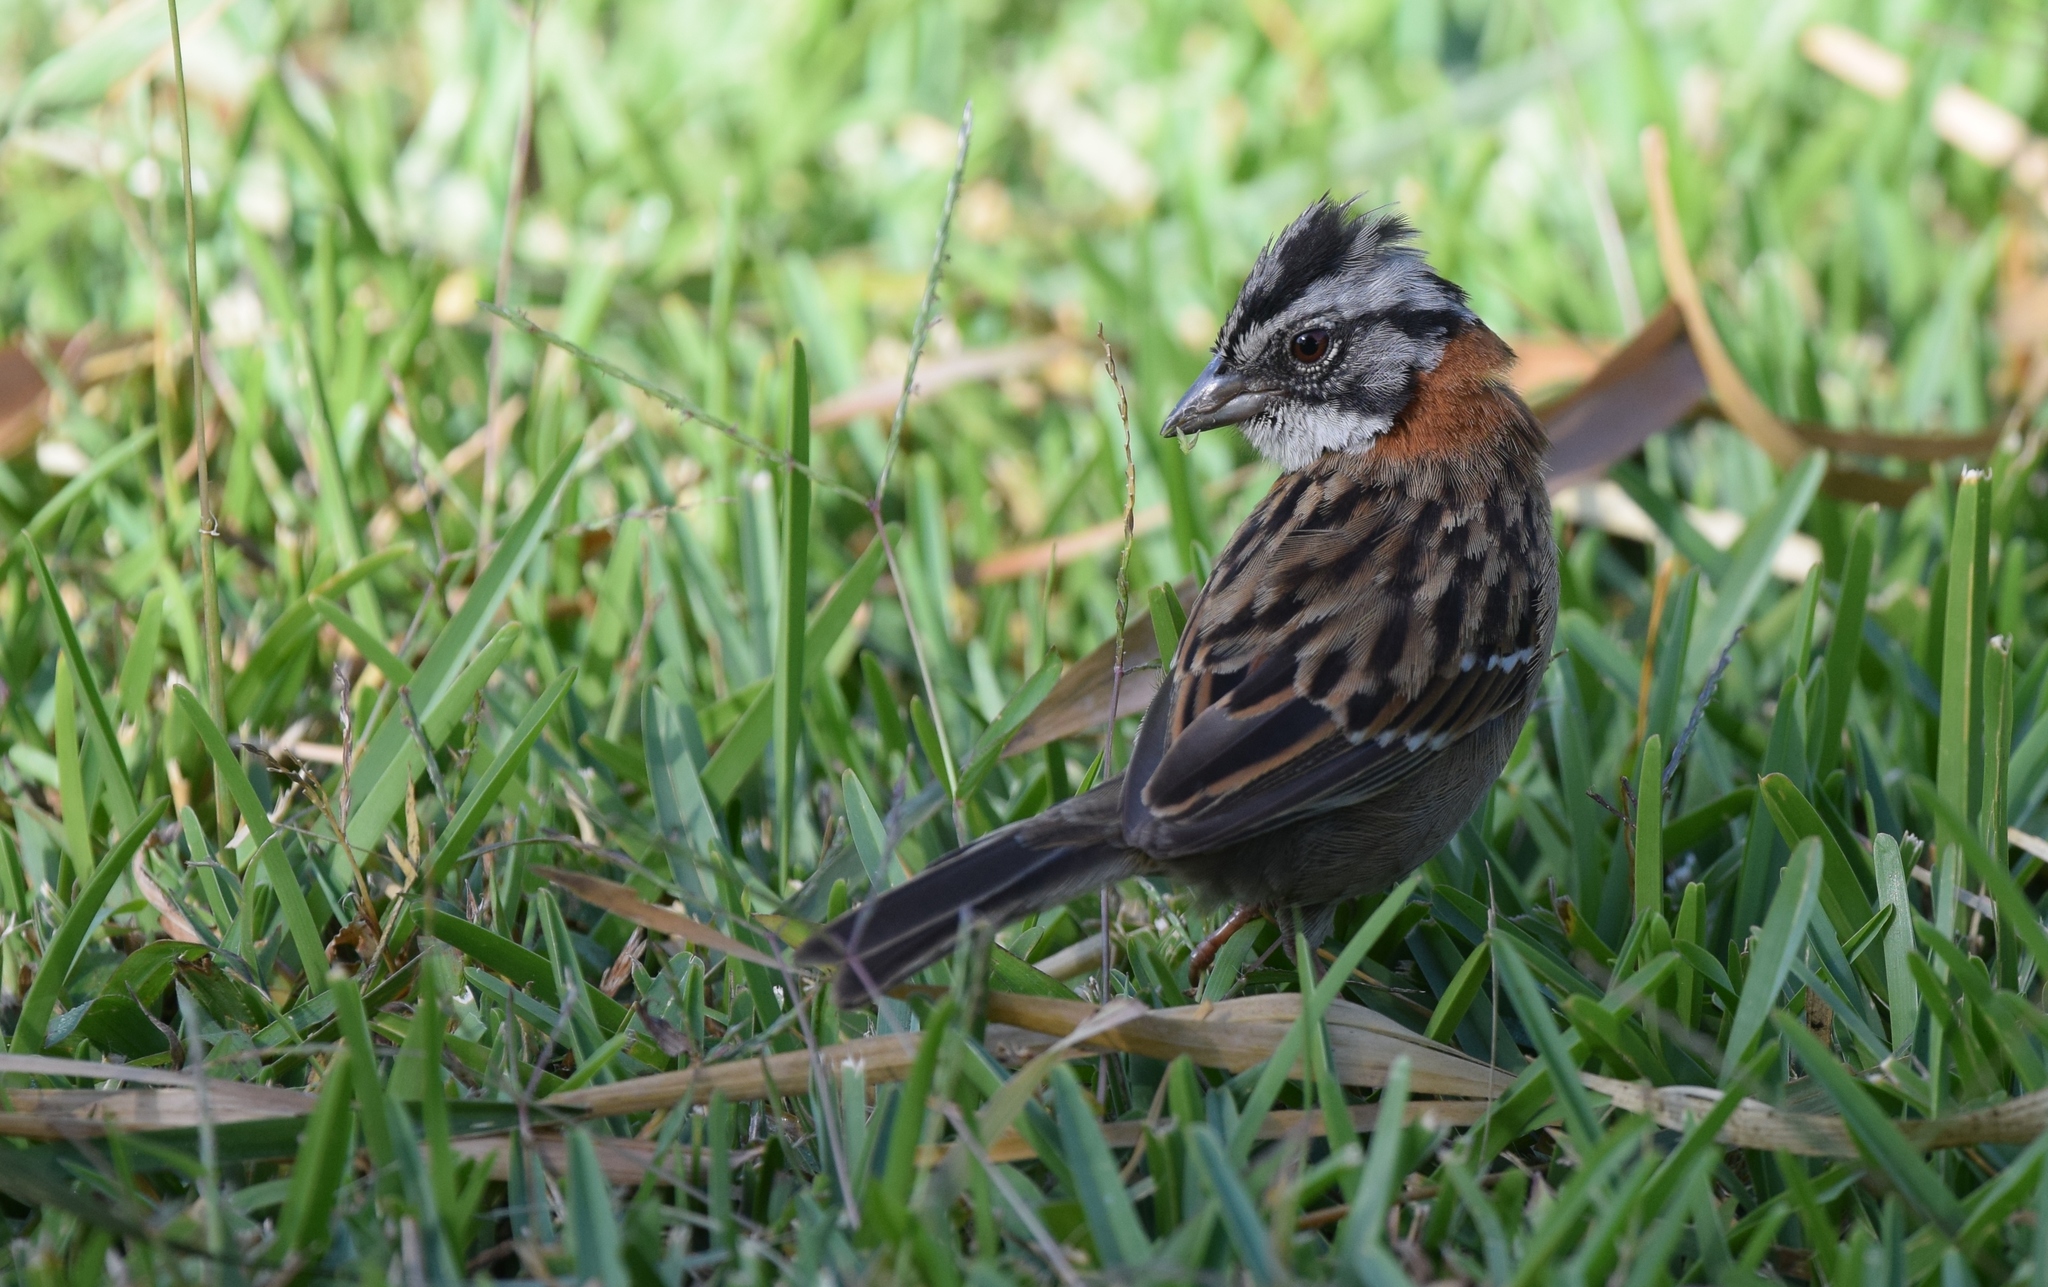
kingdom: Animalia
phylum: Chordata
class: Aves
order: Passeriformes
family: Passerellidae
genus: Zonotrichia
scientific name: Zonotrichia capensis
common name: Rufous-collared sparrow
